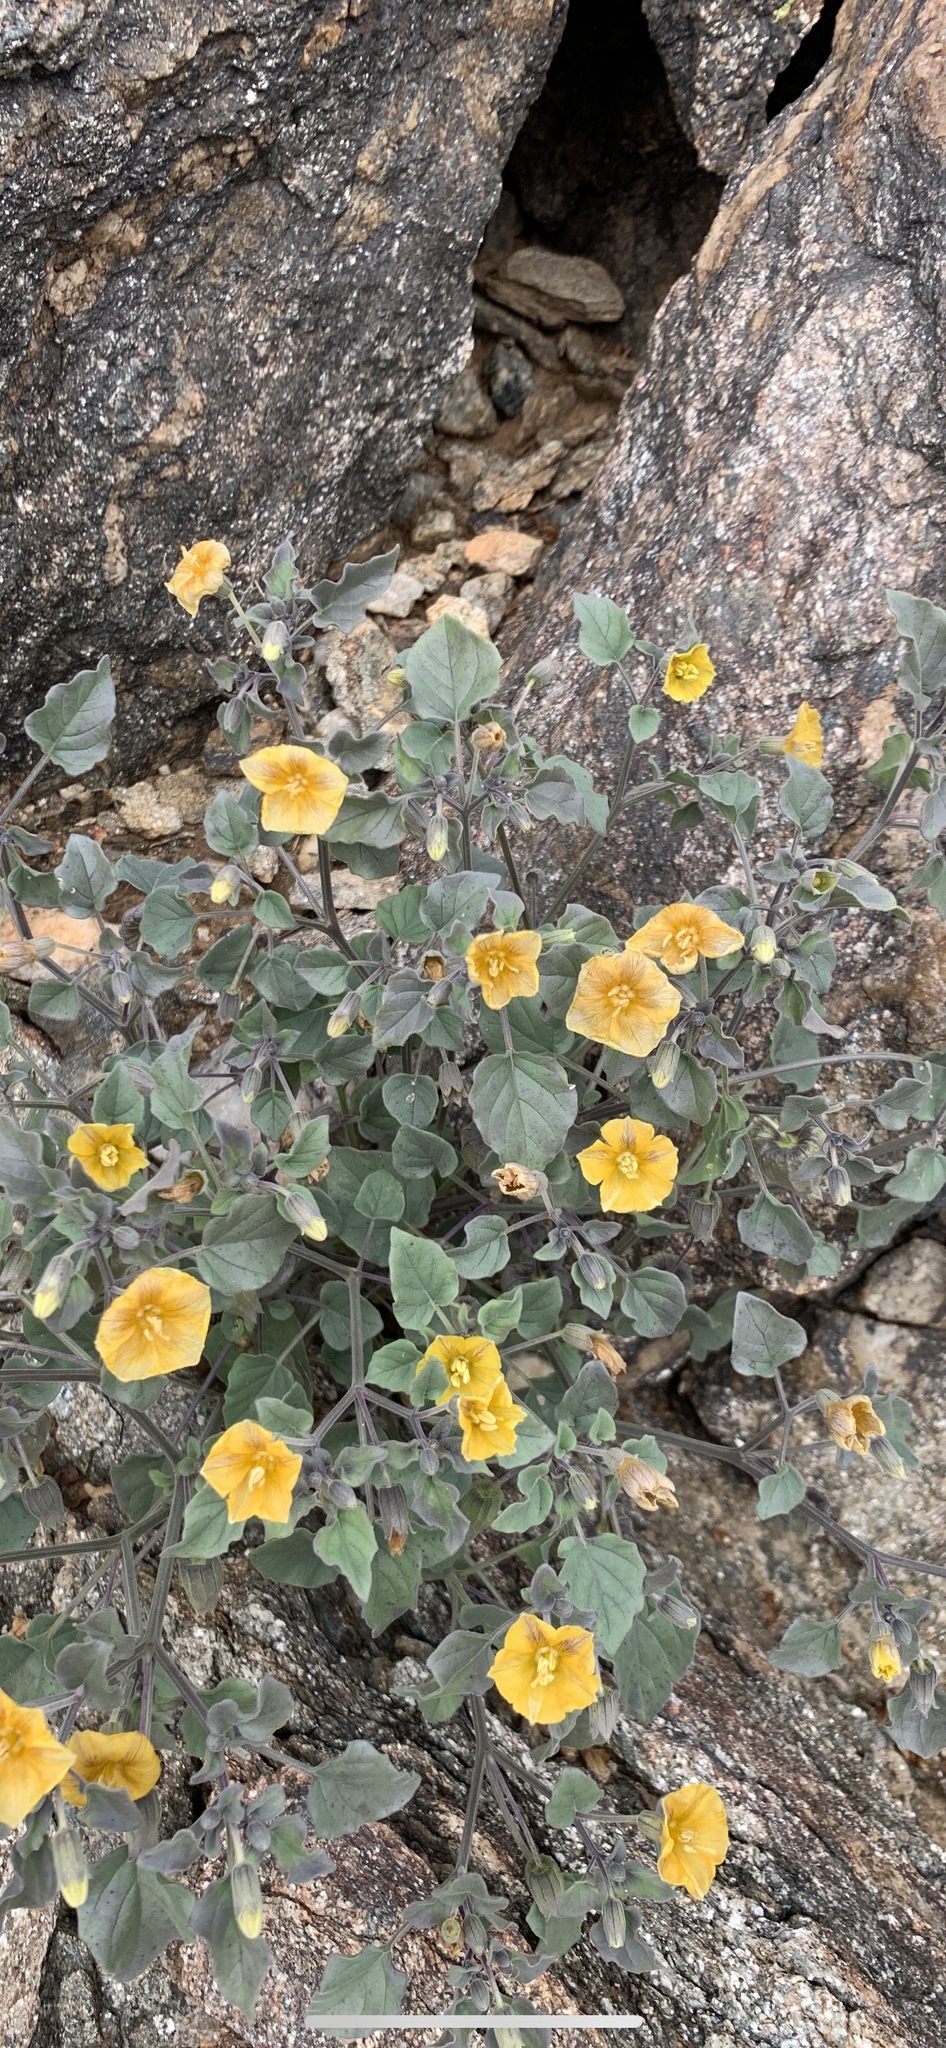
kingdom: Plantae
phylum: Tracheophyta
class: Magnoliopsida
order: Solanales
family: Solanaceae
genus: Physalis
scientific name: Physalis crassifolia
